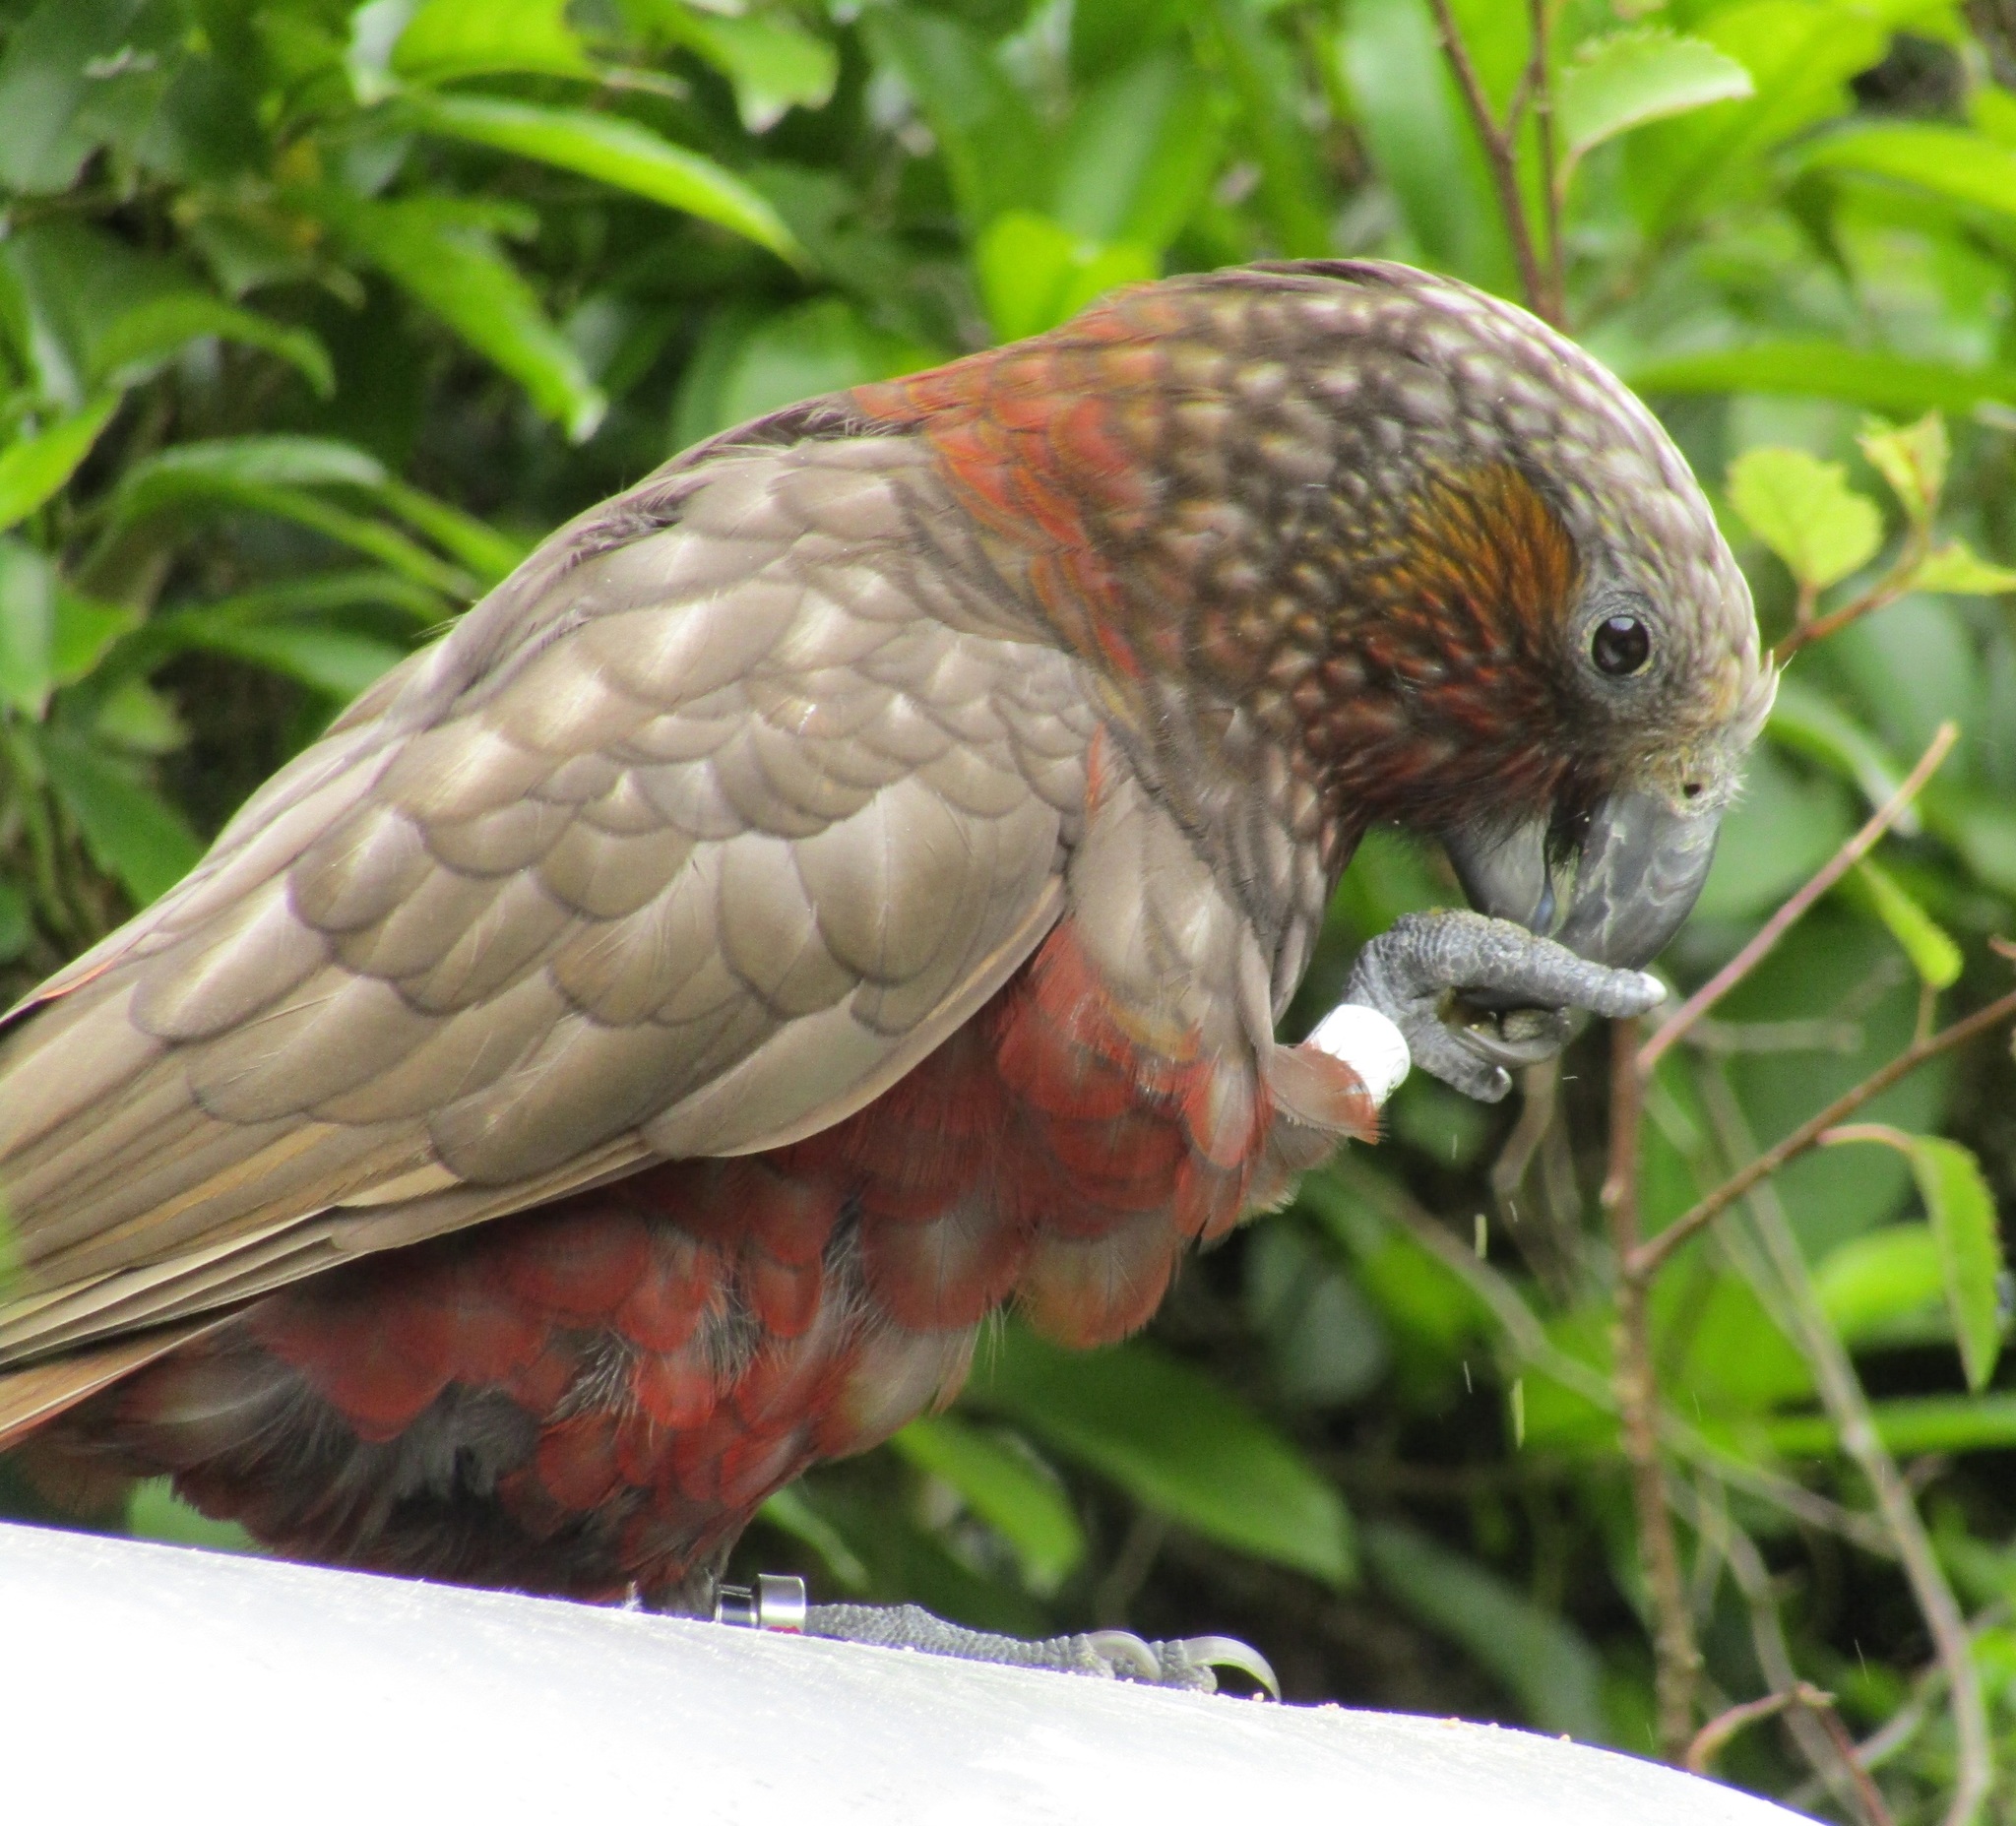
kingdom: Animalia
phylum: Chordata
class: Aves
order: Psittaciformes
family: Psittacidae
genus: Nestor
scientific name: Nestor meridionalis
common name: New zealand kaka
